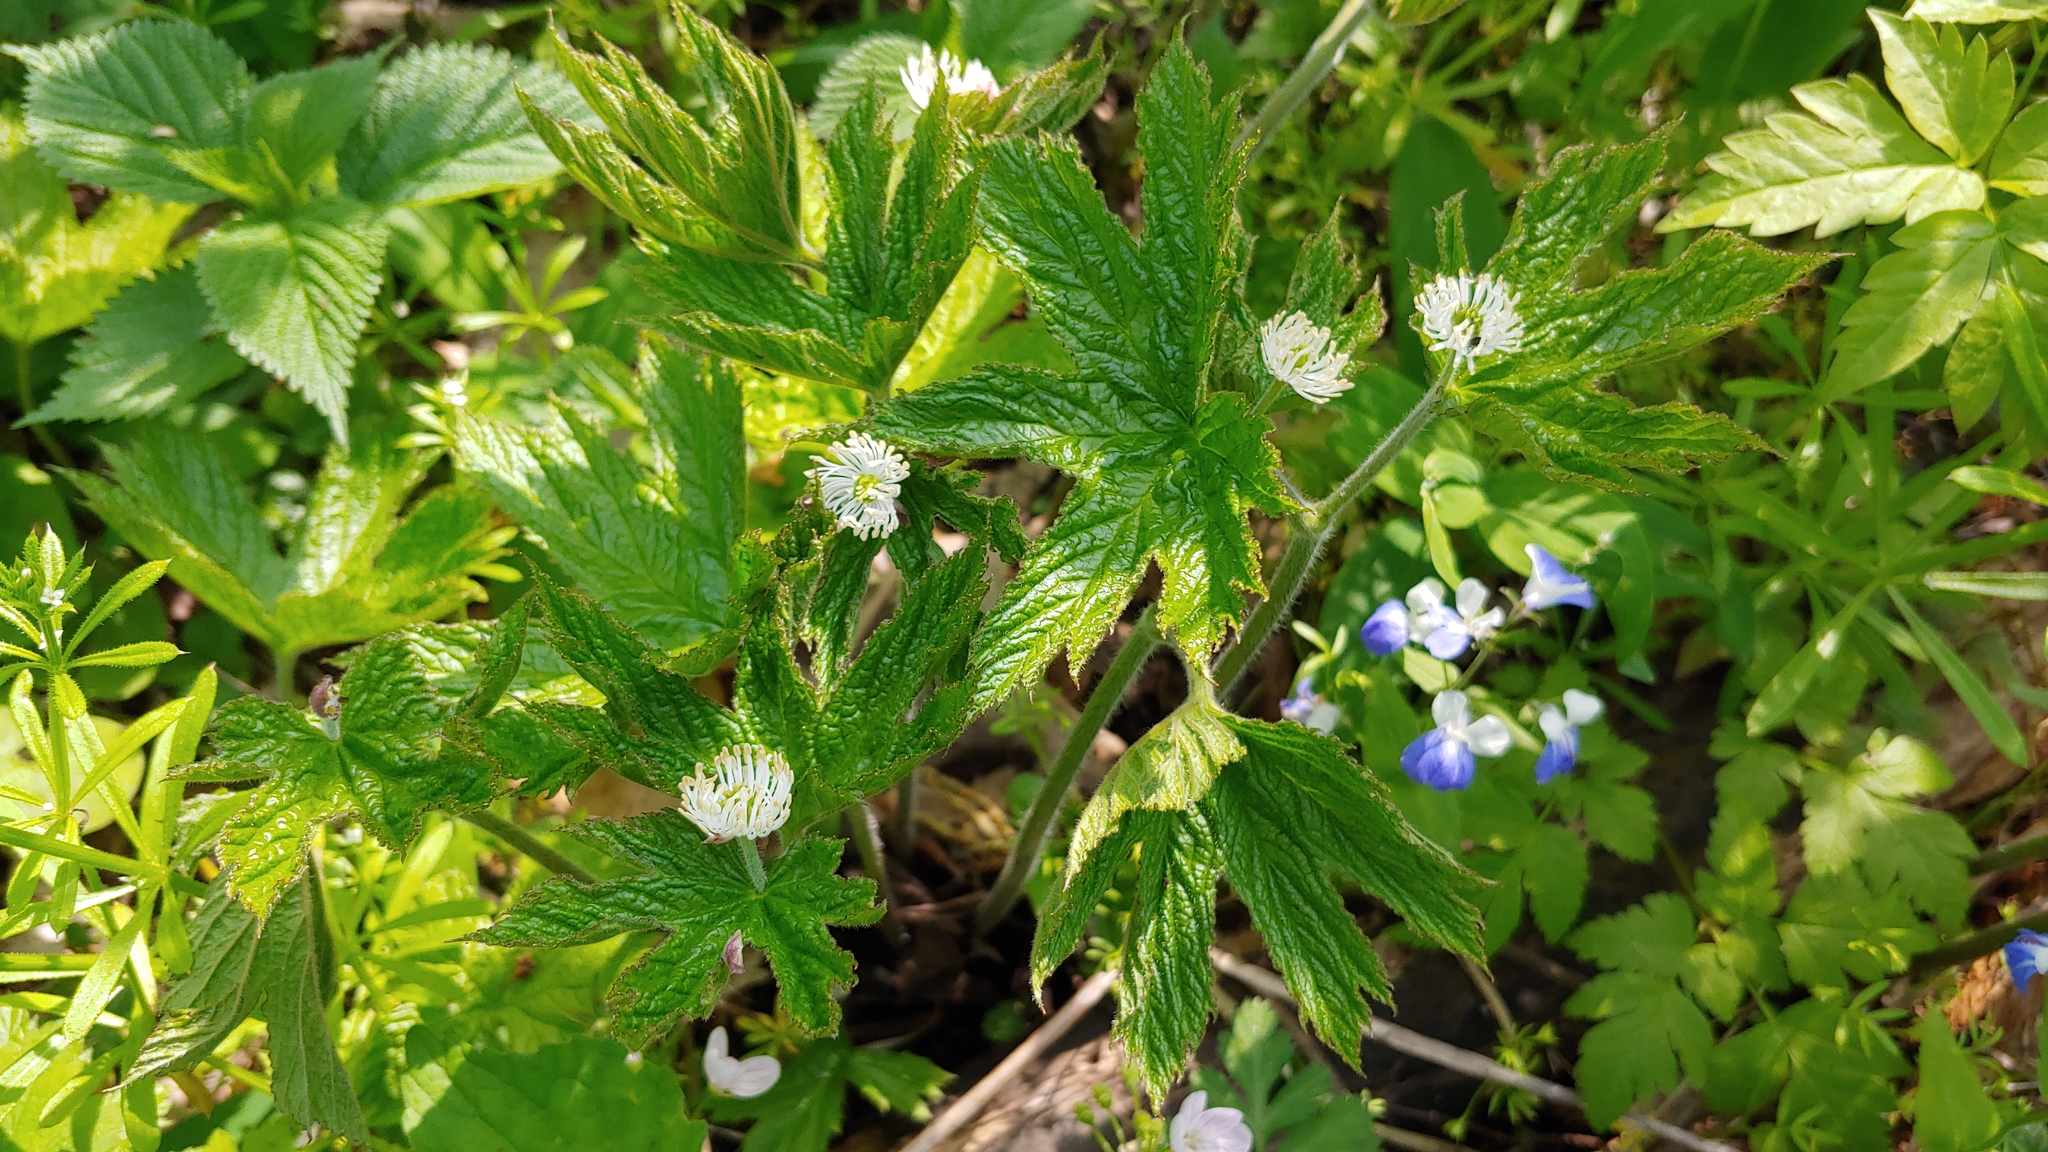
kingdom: Plantae
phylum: Tracheophyta
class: Magnoliopsida
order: Ranunculales
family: Ranunculaceae
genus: Hydrastis
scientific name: Hydrastis canadensis
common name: Goldenseal
